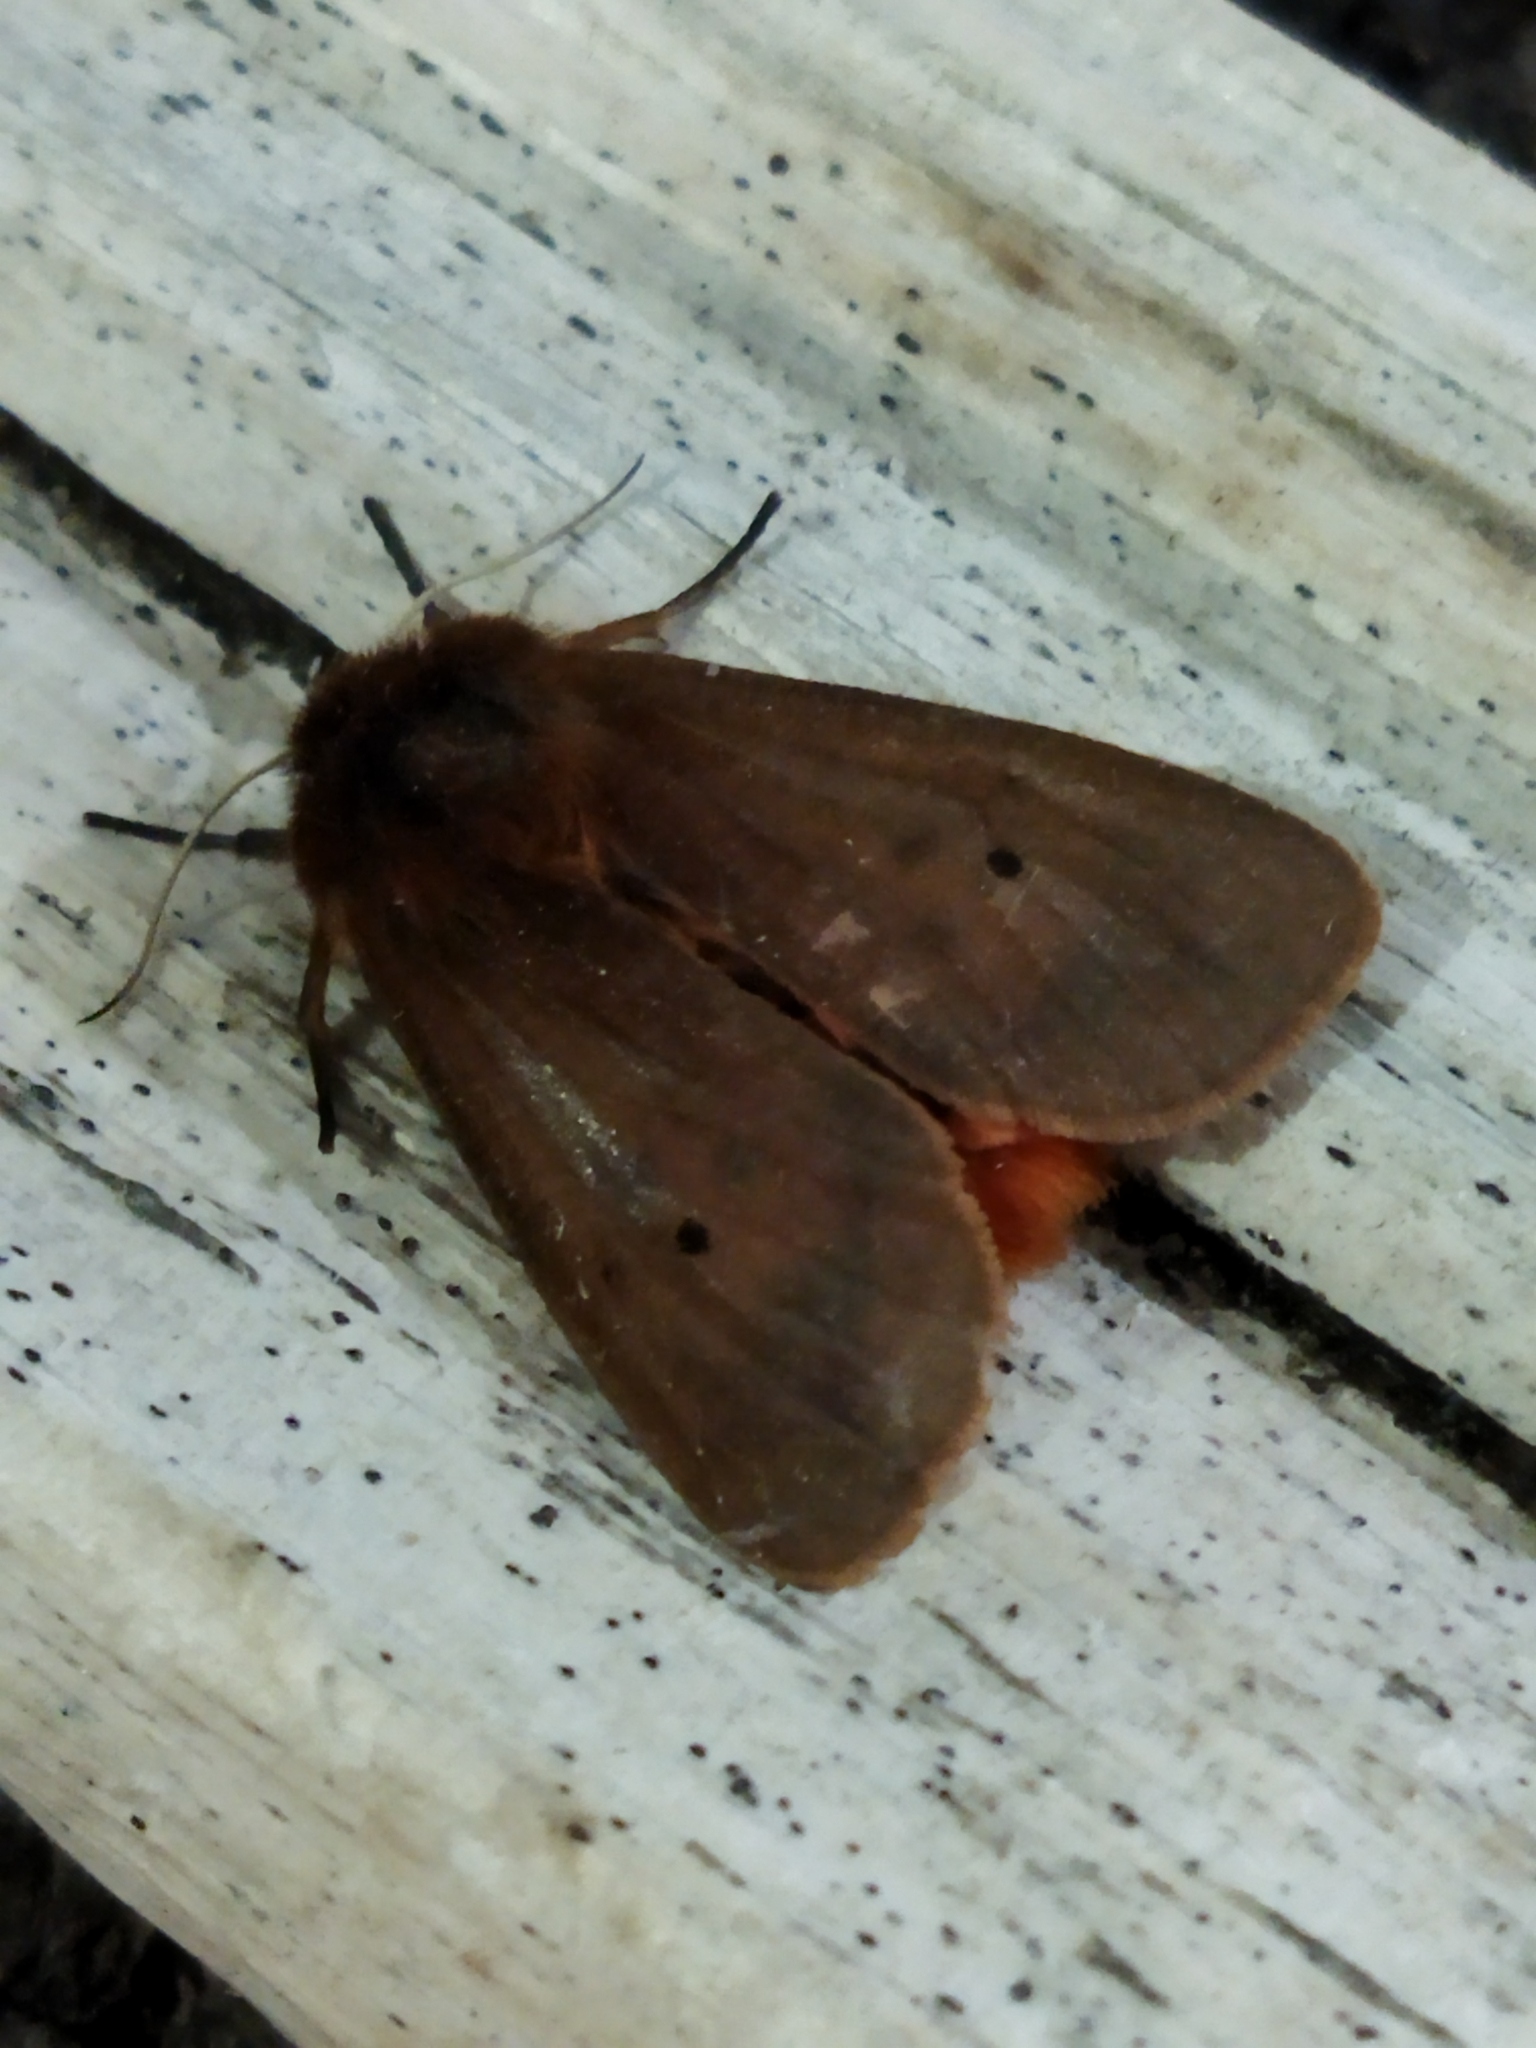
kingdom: Animalia
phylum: Arthropoda
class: Insecta
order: Lepidoptera
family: Erebidae
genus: Phragmatobia
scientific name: Phragmatobia fuliginosa
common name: Ruby tiger
